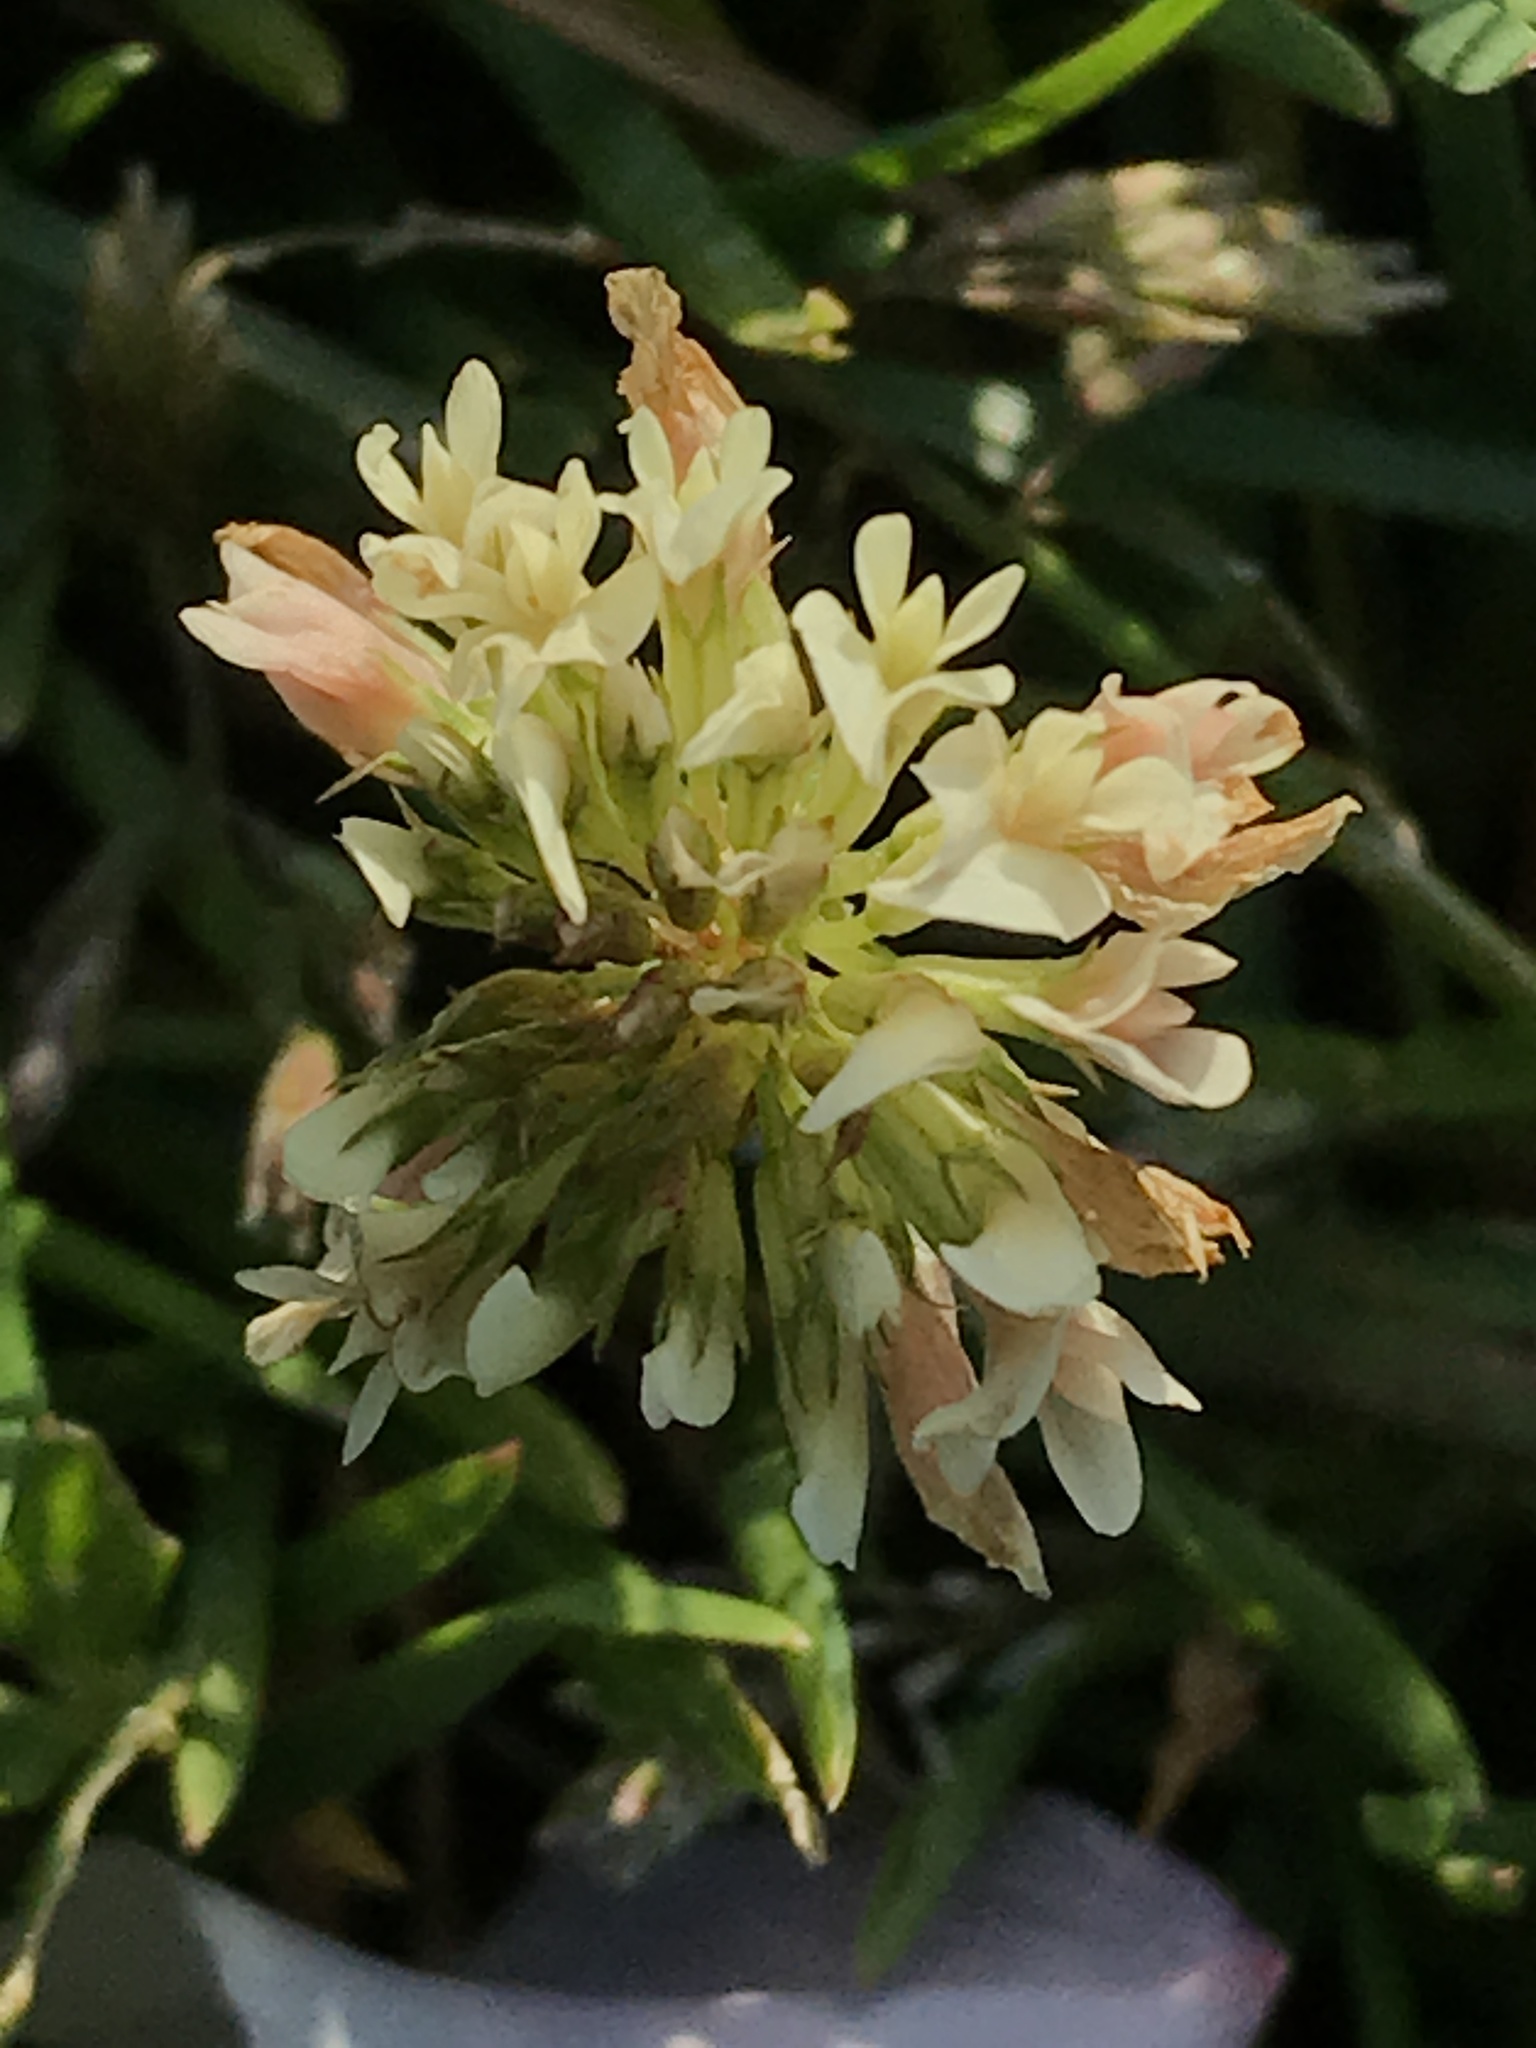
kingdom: Plantae
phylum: Tracheophyta
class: Magnoliopsida
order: Fabales
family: Fabaceae
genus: Trifolium
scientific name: Trifolium repens
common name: White clover
